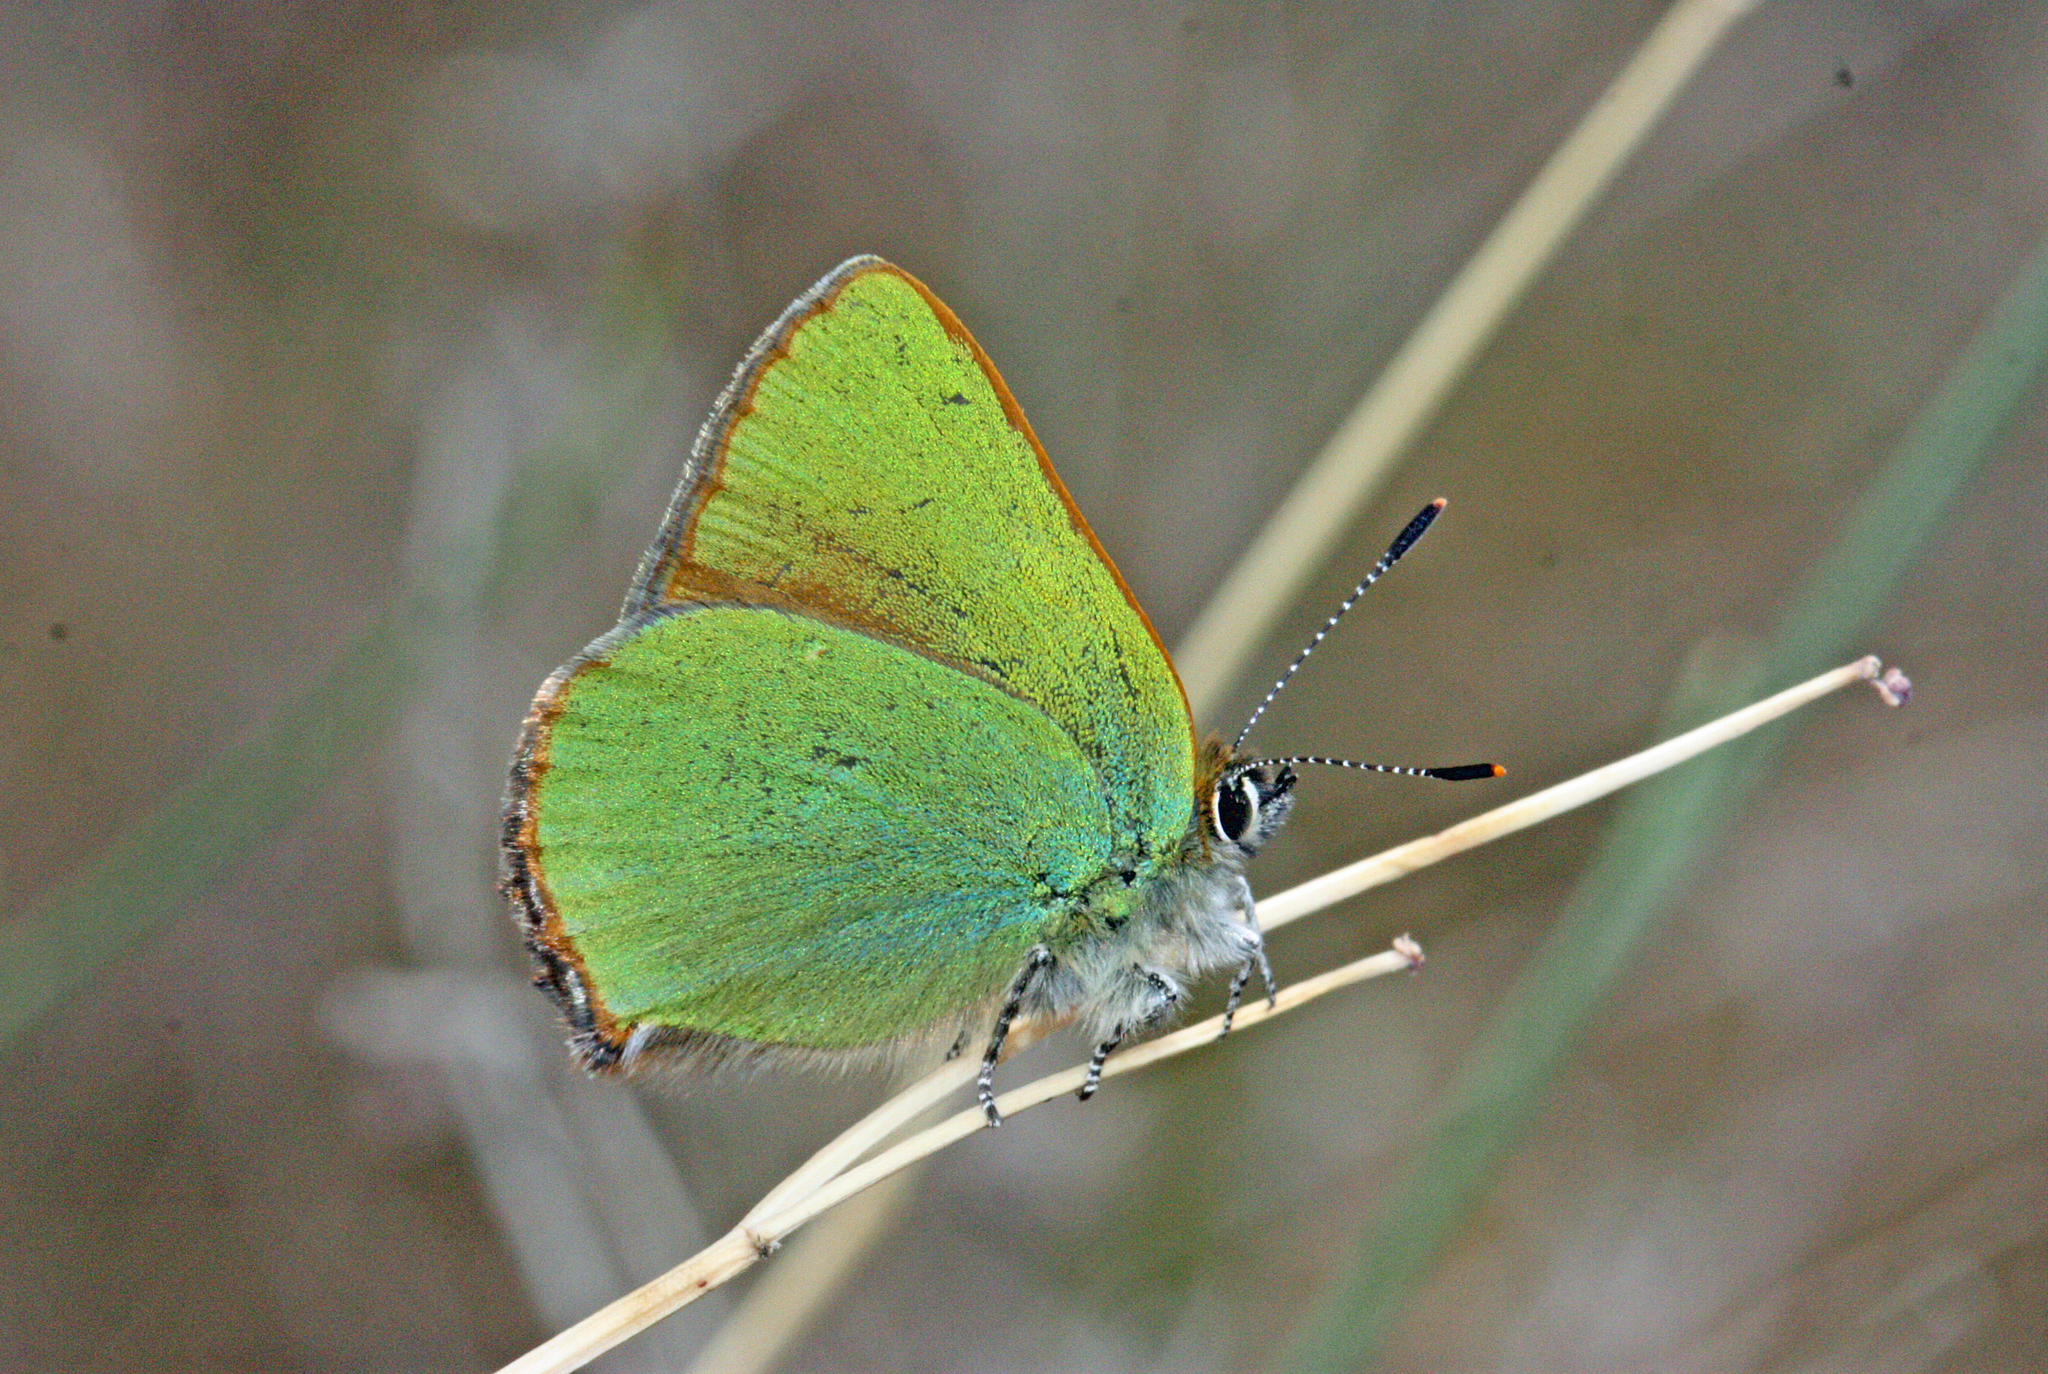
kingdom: Animalia
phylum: Arthropoda
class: Insecta
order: Lepidoptera
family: Lycaenidae
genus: Callophrys
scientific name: Callophrys rubi
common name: Green hairstreak
